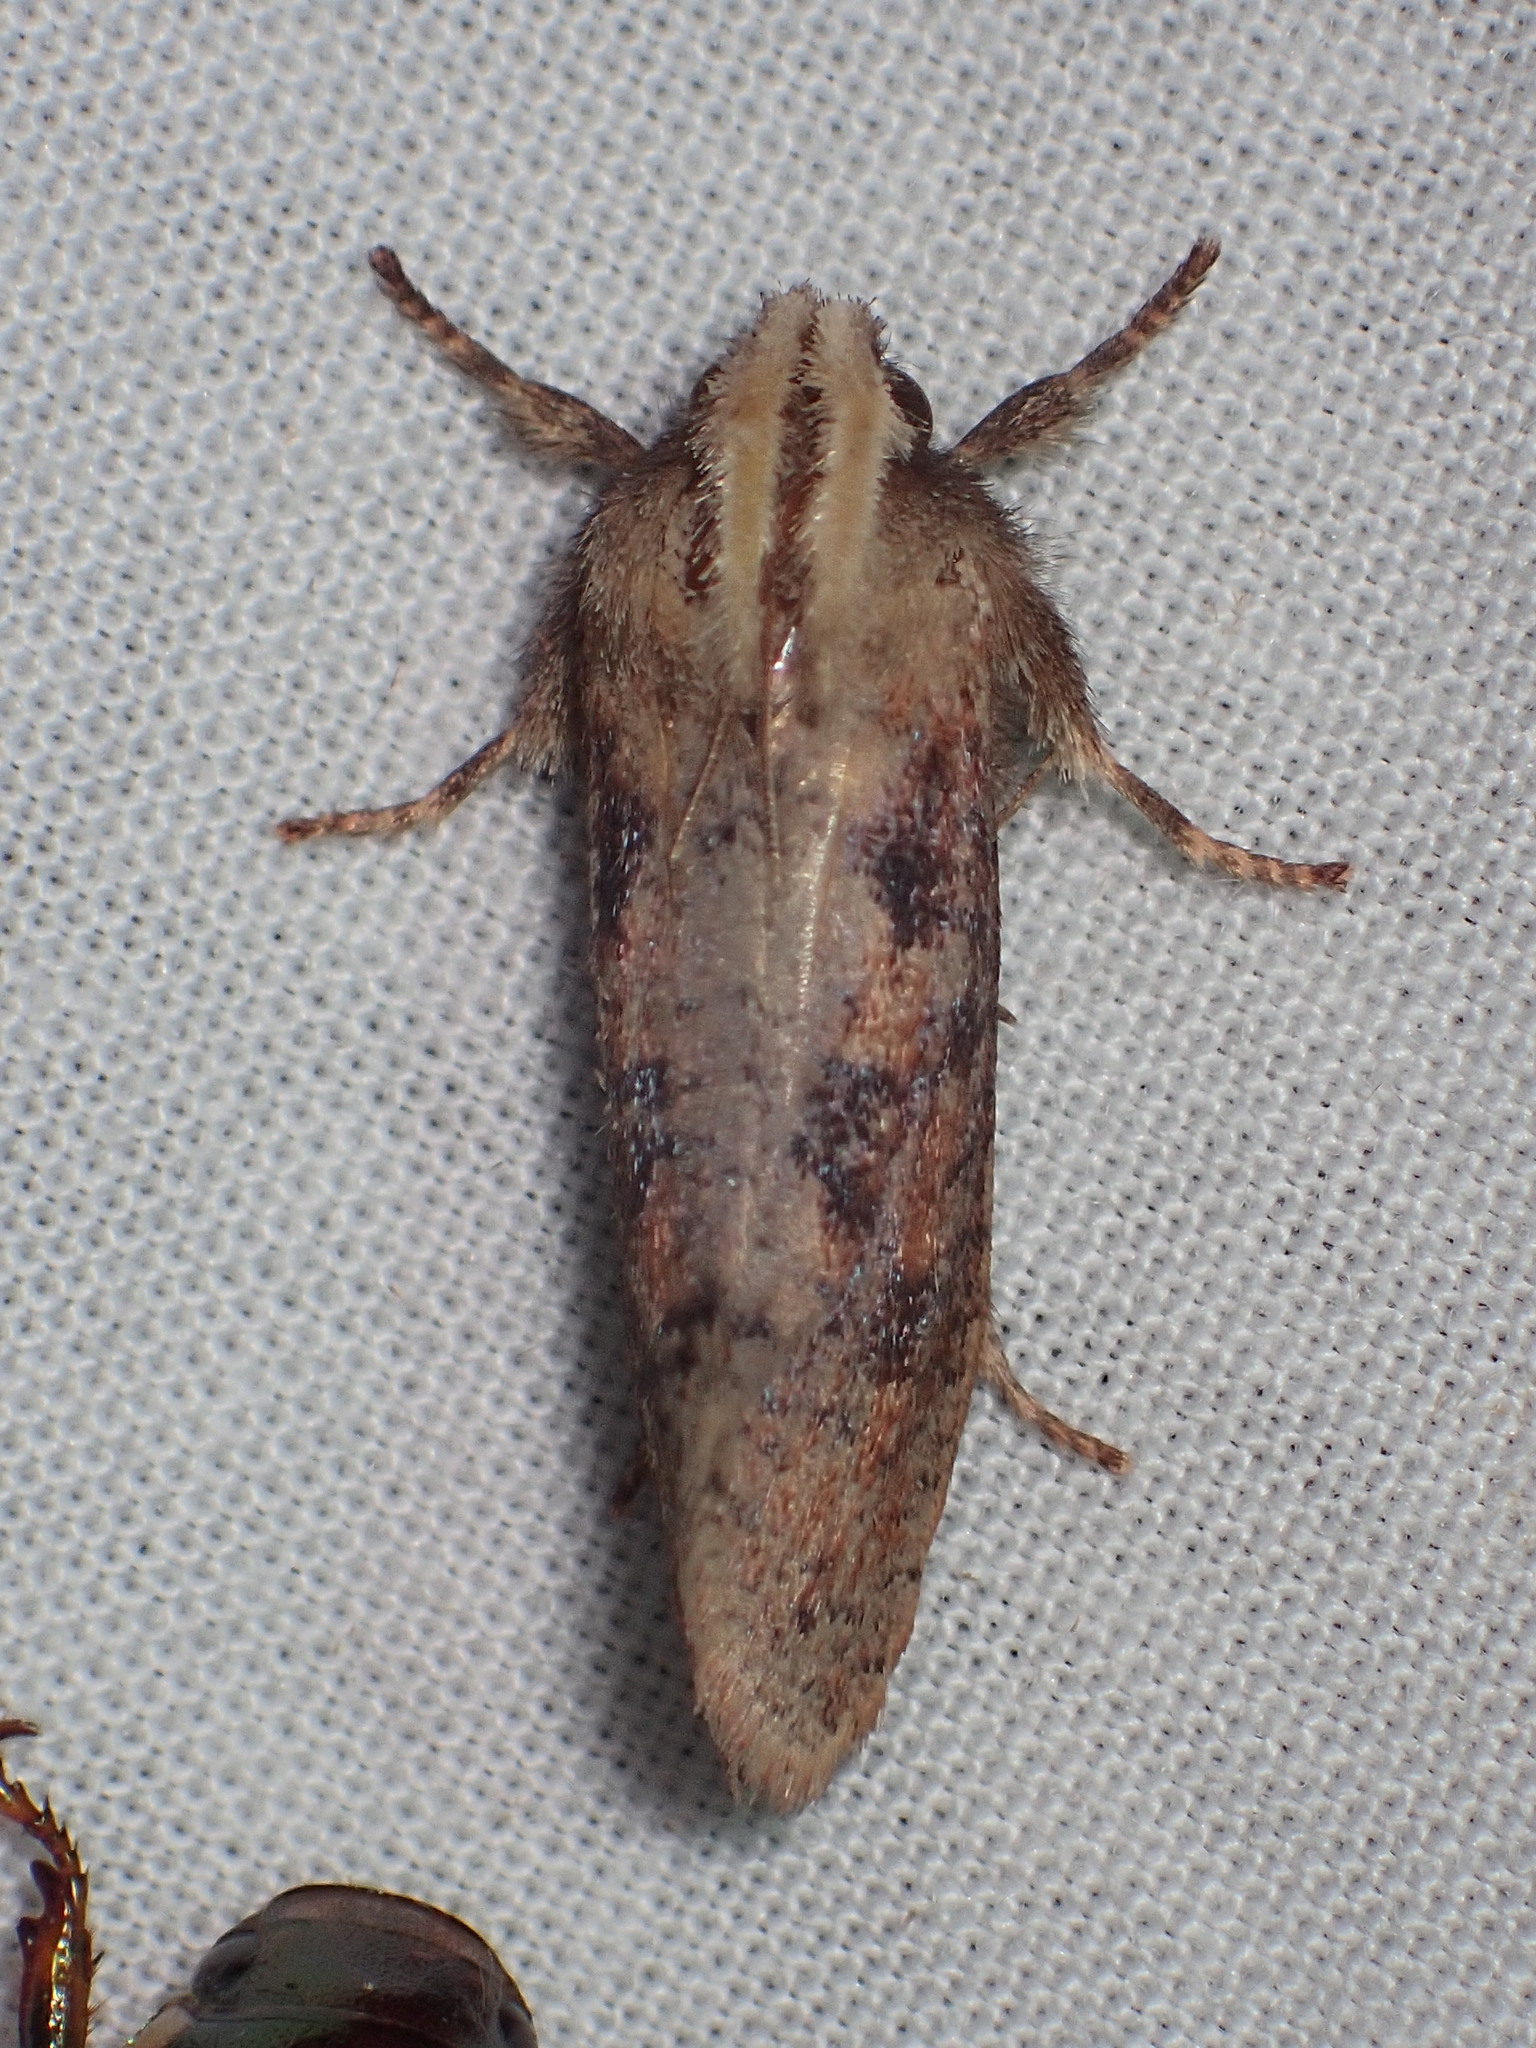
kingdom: Animalia
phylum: Arthropoda
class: Insecta
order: Lepidoptera
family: Tineidae
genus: Acrolophus
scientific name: Acrolophus plumifrontella
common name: Eastern grass tubeworm moth
